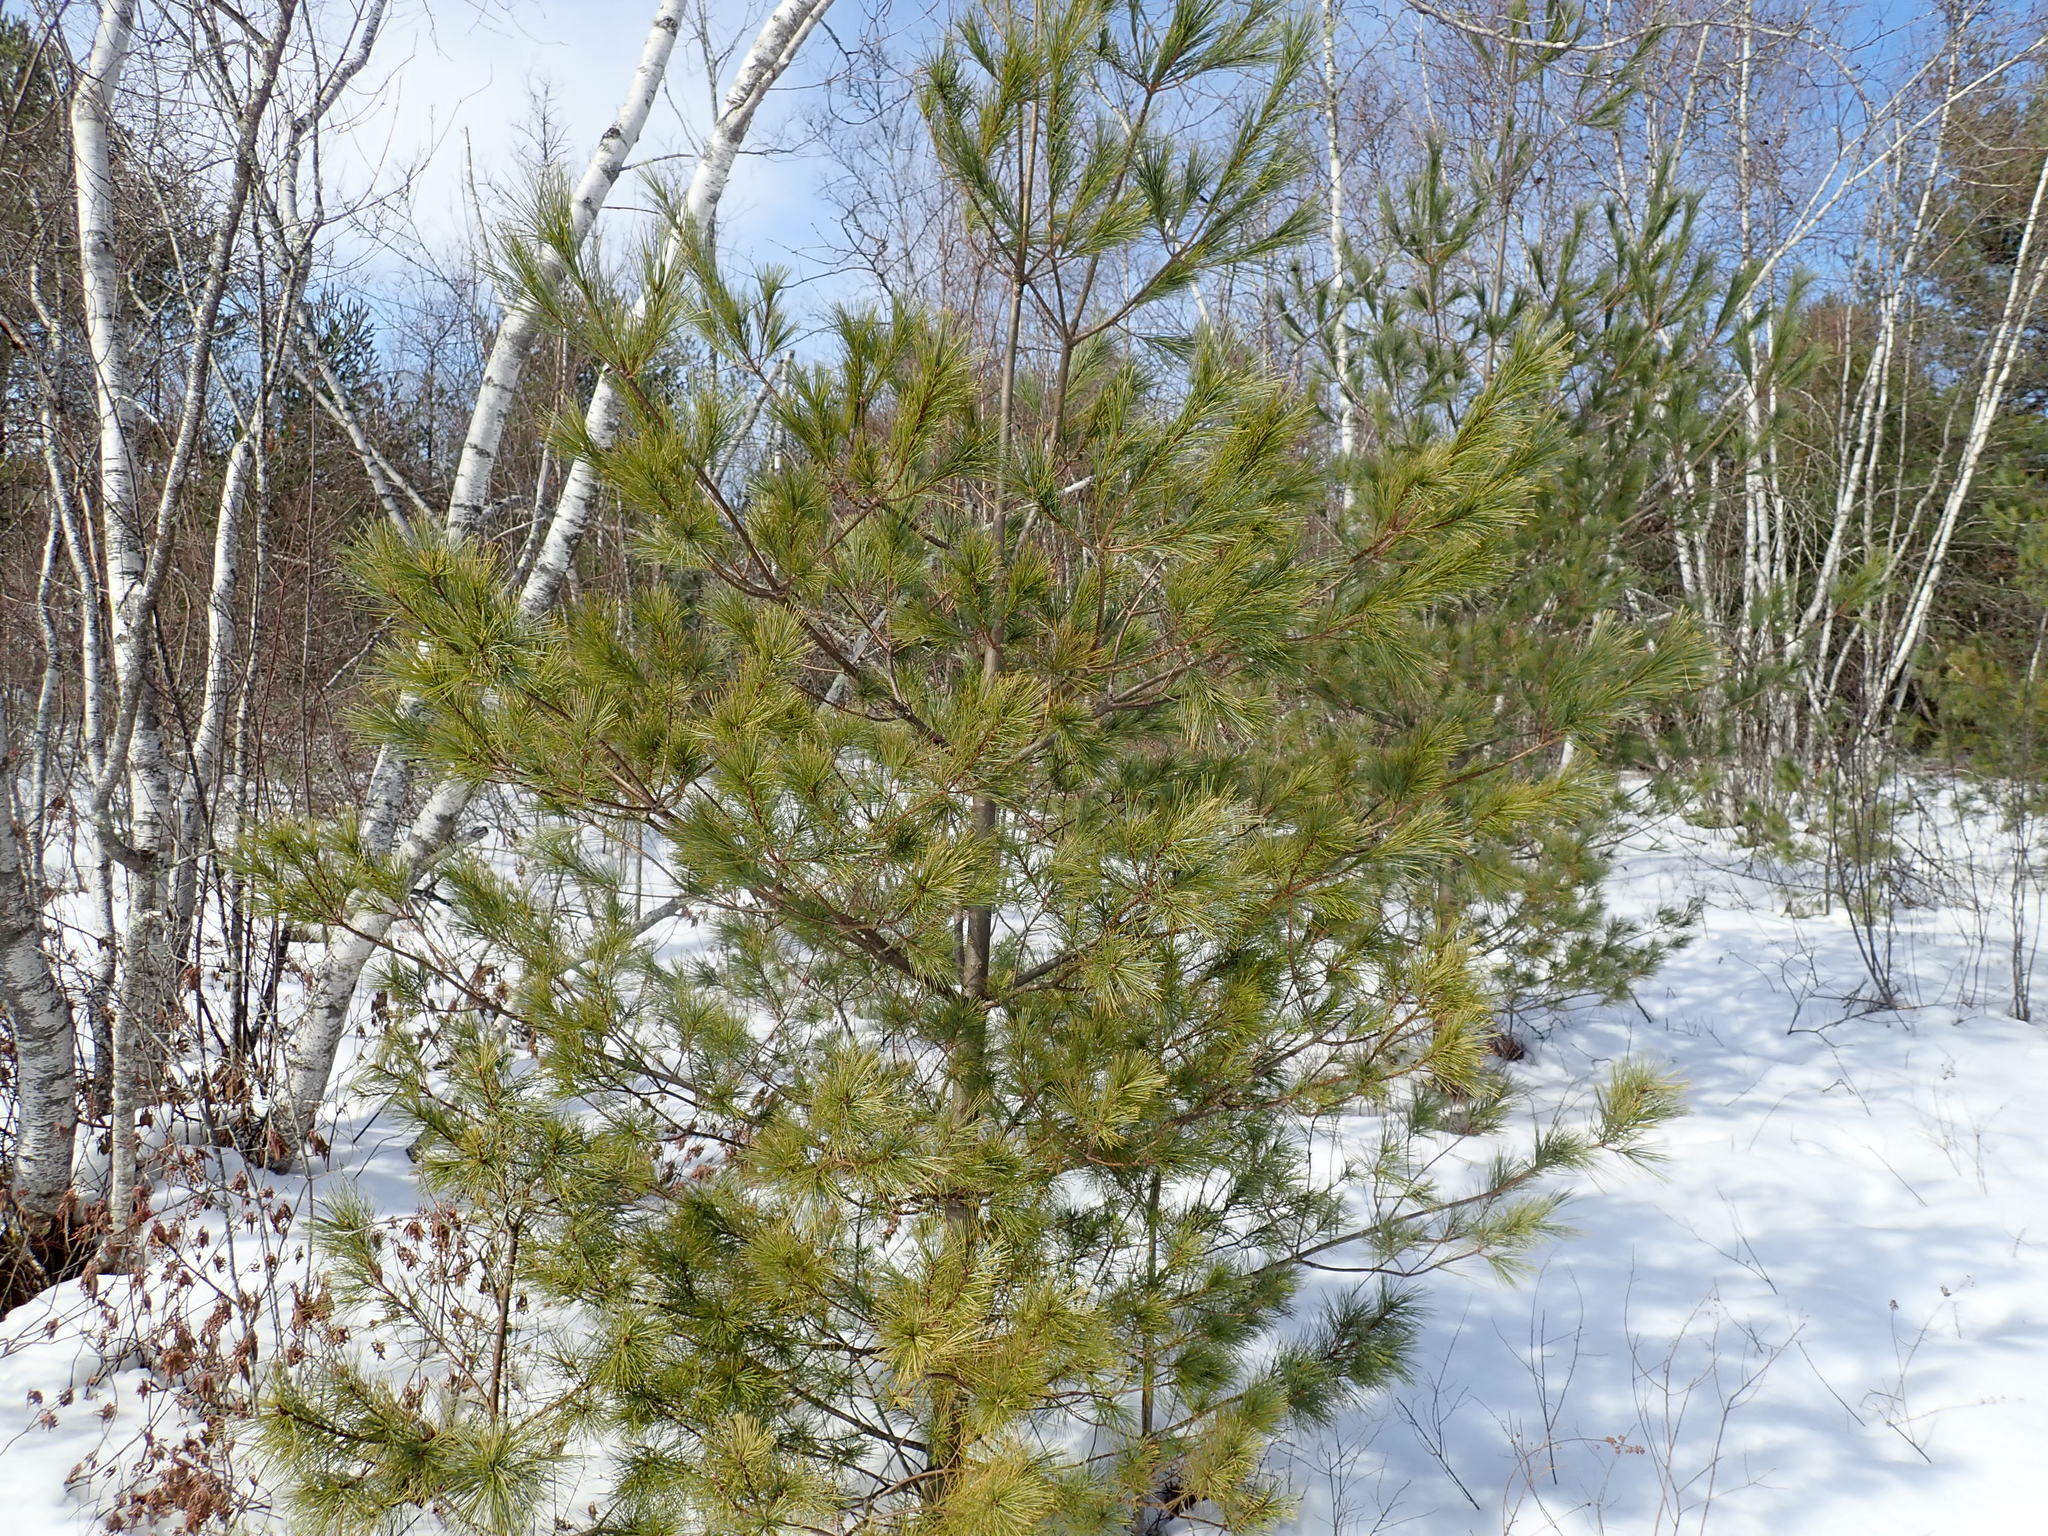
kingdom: Plantae
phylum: Tracheophyta
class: Pinopsida
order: Pinales
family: Pinaceae
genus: Pinus
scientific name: Pinus strobus
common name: Weymouth pine
